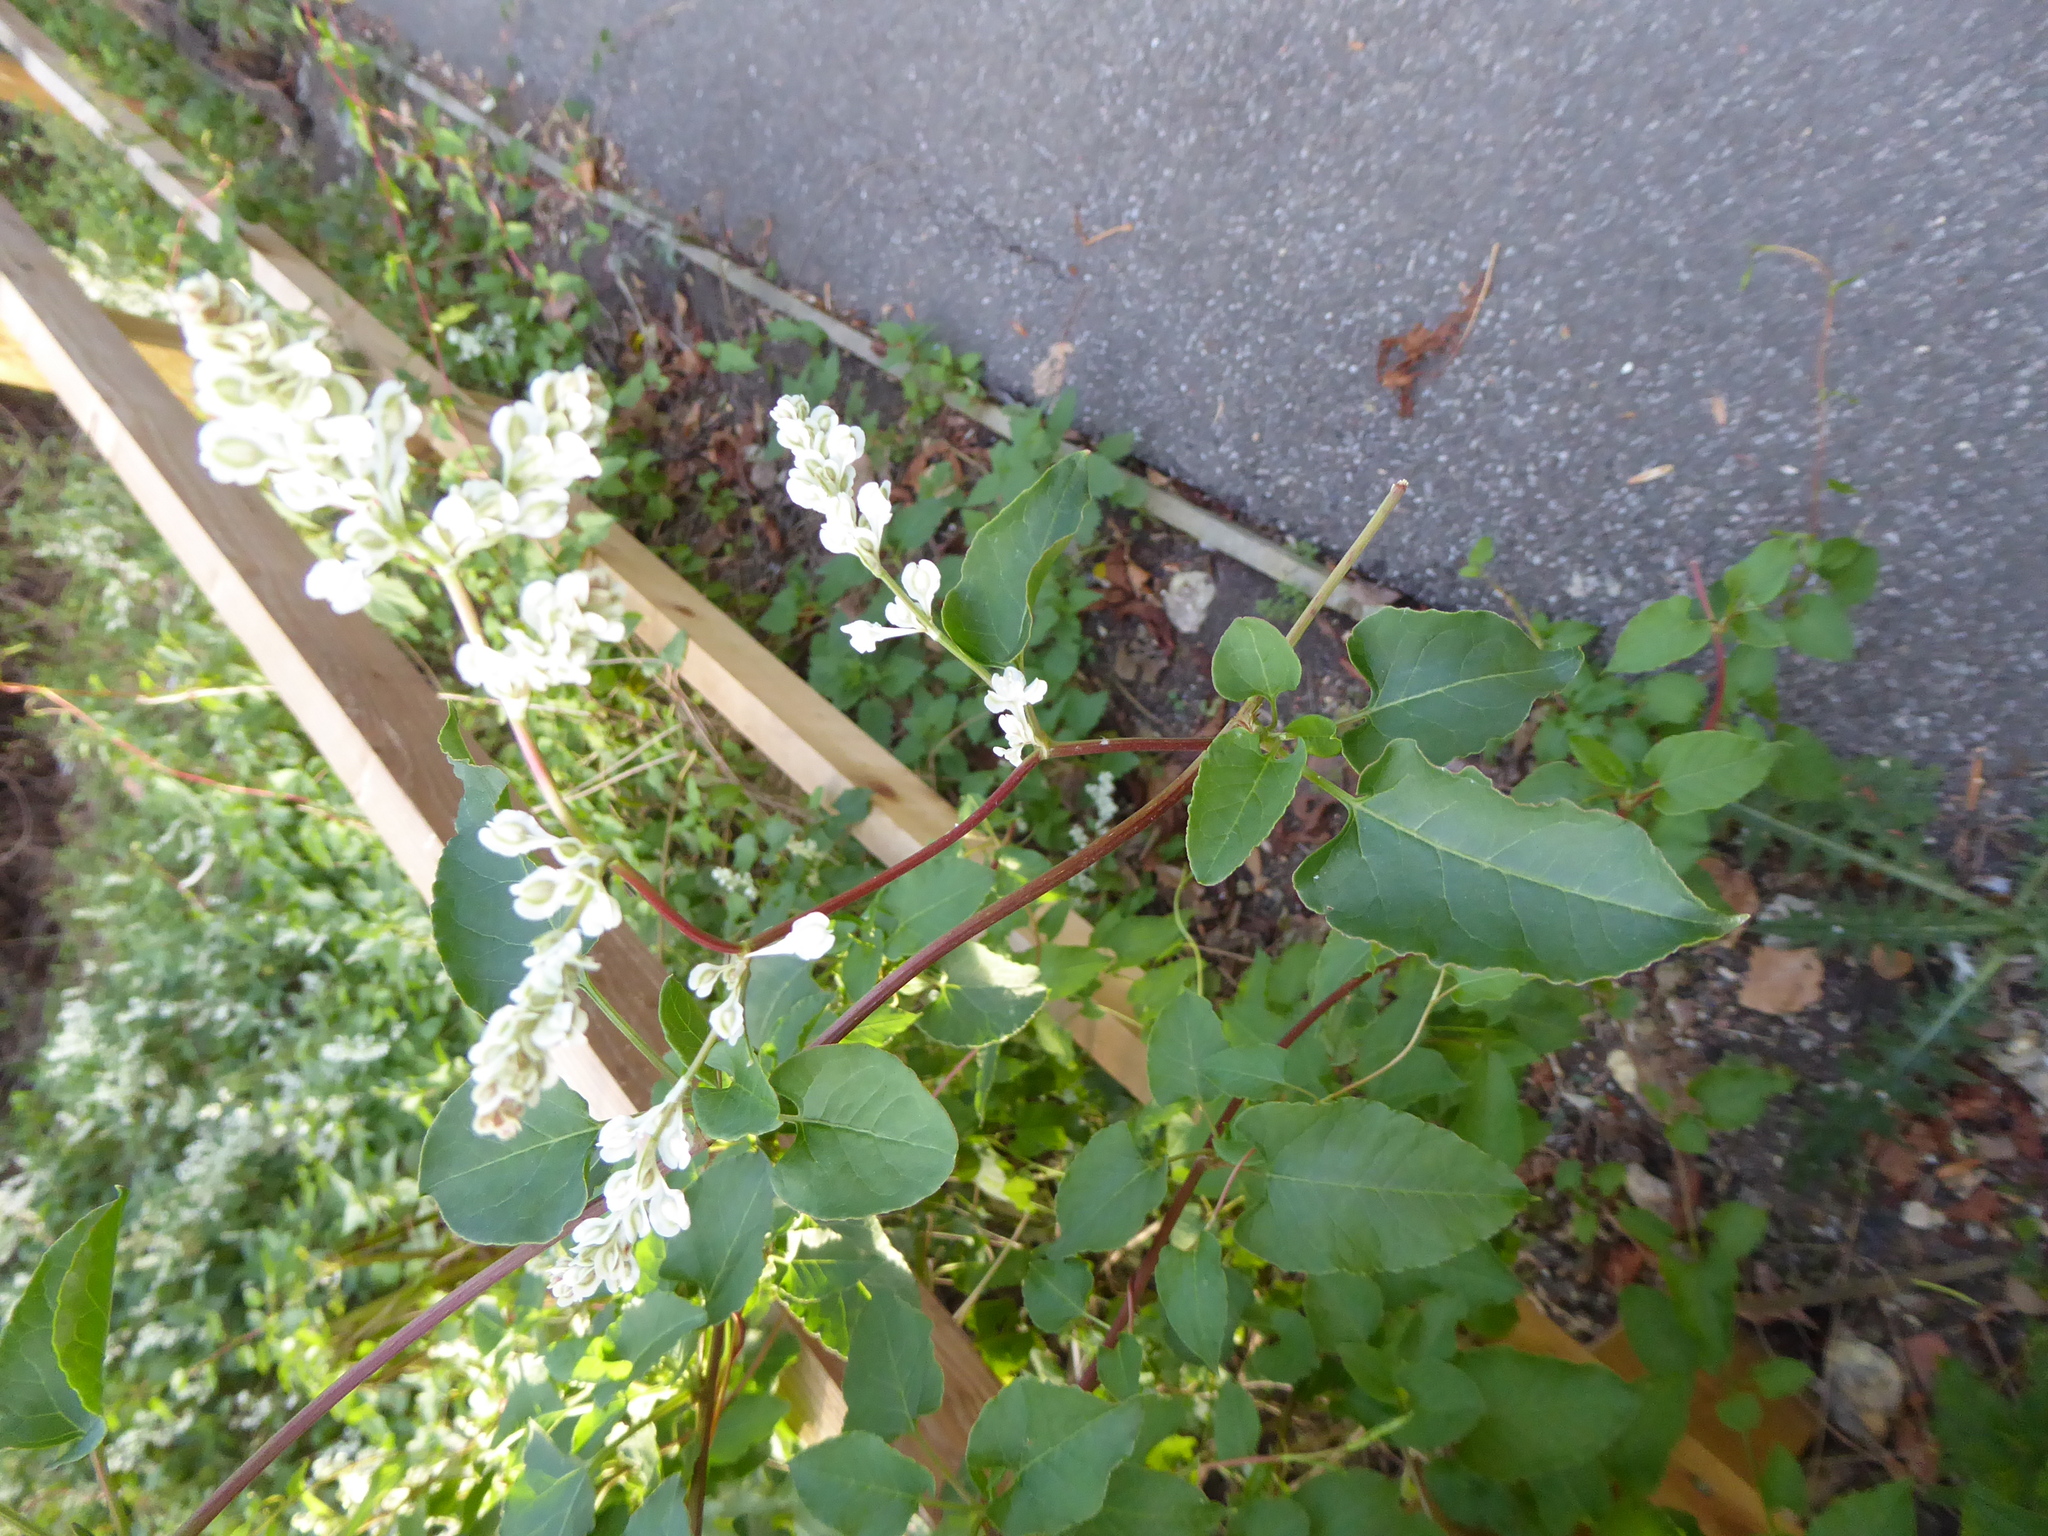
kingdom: Plantae
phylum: Tracheophyta
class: Magnoliopsida
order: Caryophyllales
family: Polygonaceae
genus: Fallopia
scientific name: Fallopia baldschuanica
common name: Russian-vine
